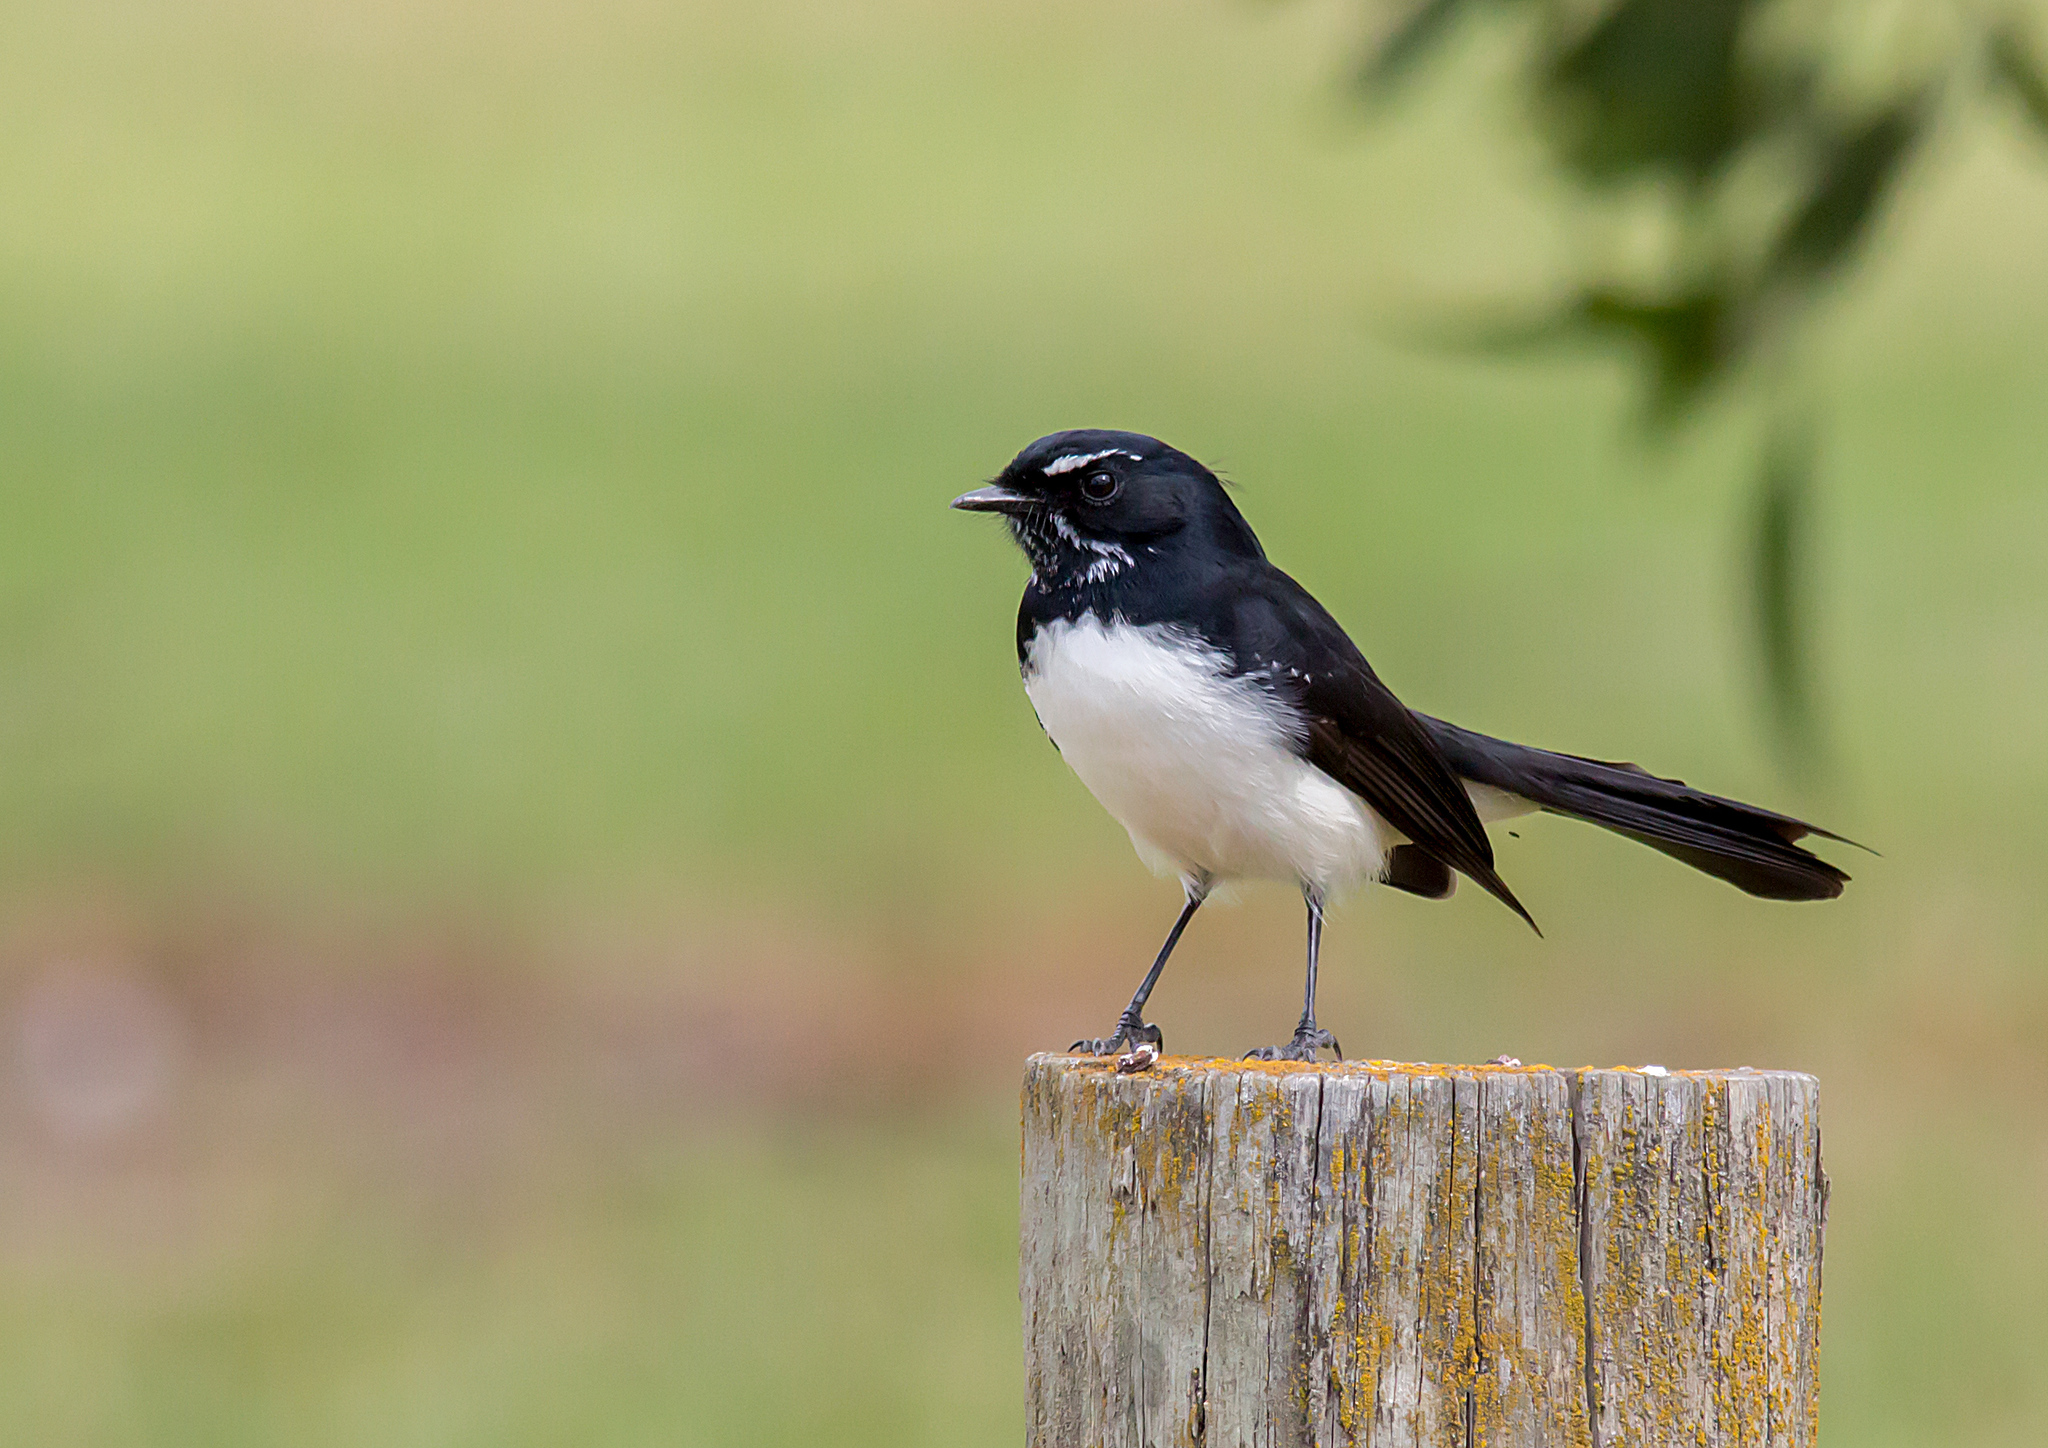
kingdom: Animalia
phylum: Chordata
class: Aves
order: Passeriformes
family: Rhipiduridae
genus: Rhipidura
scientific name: Rhipidura leucophrys
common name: Willie wagtail
